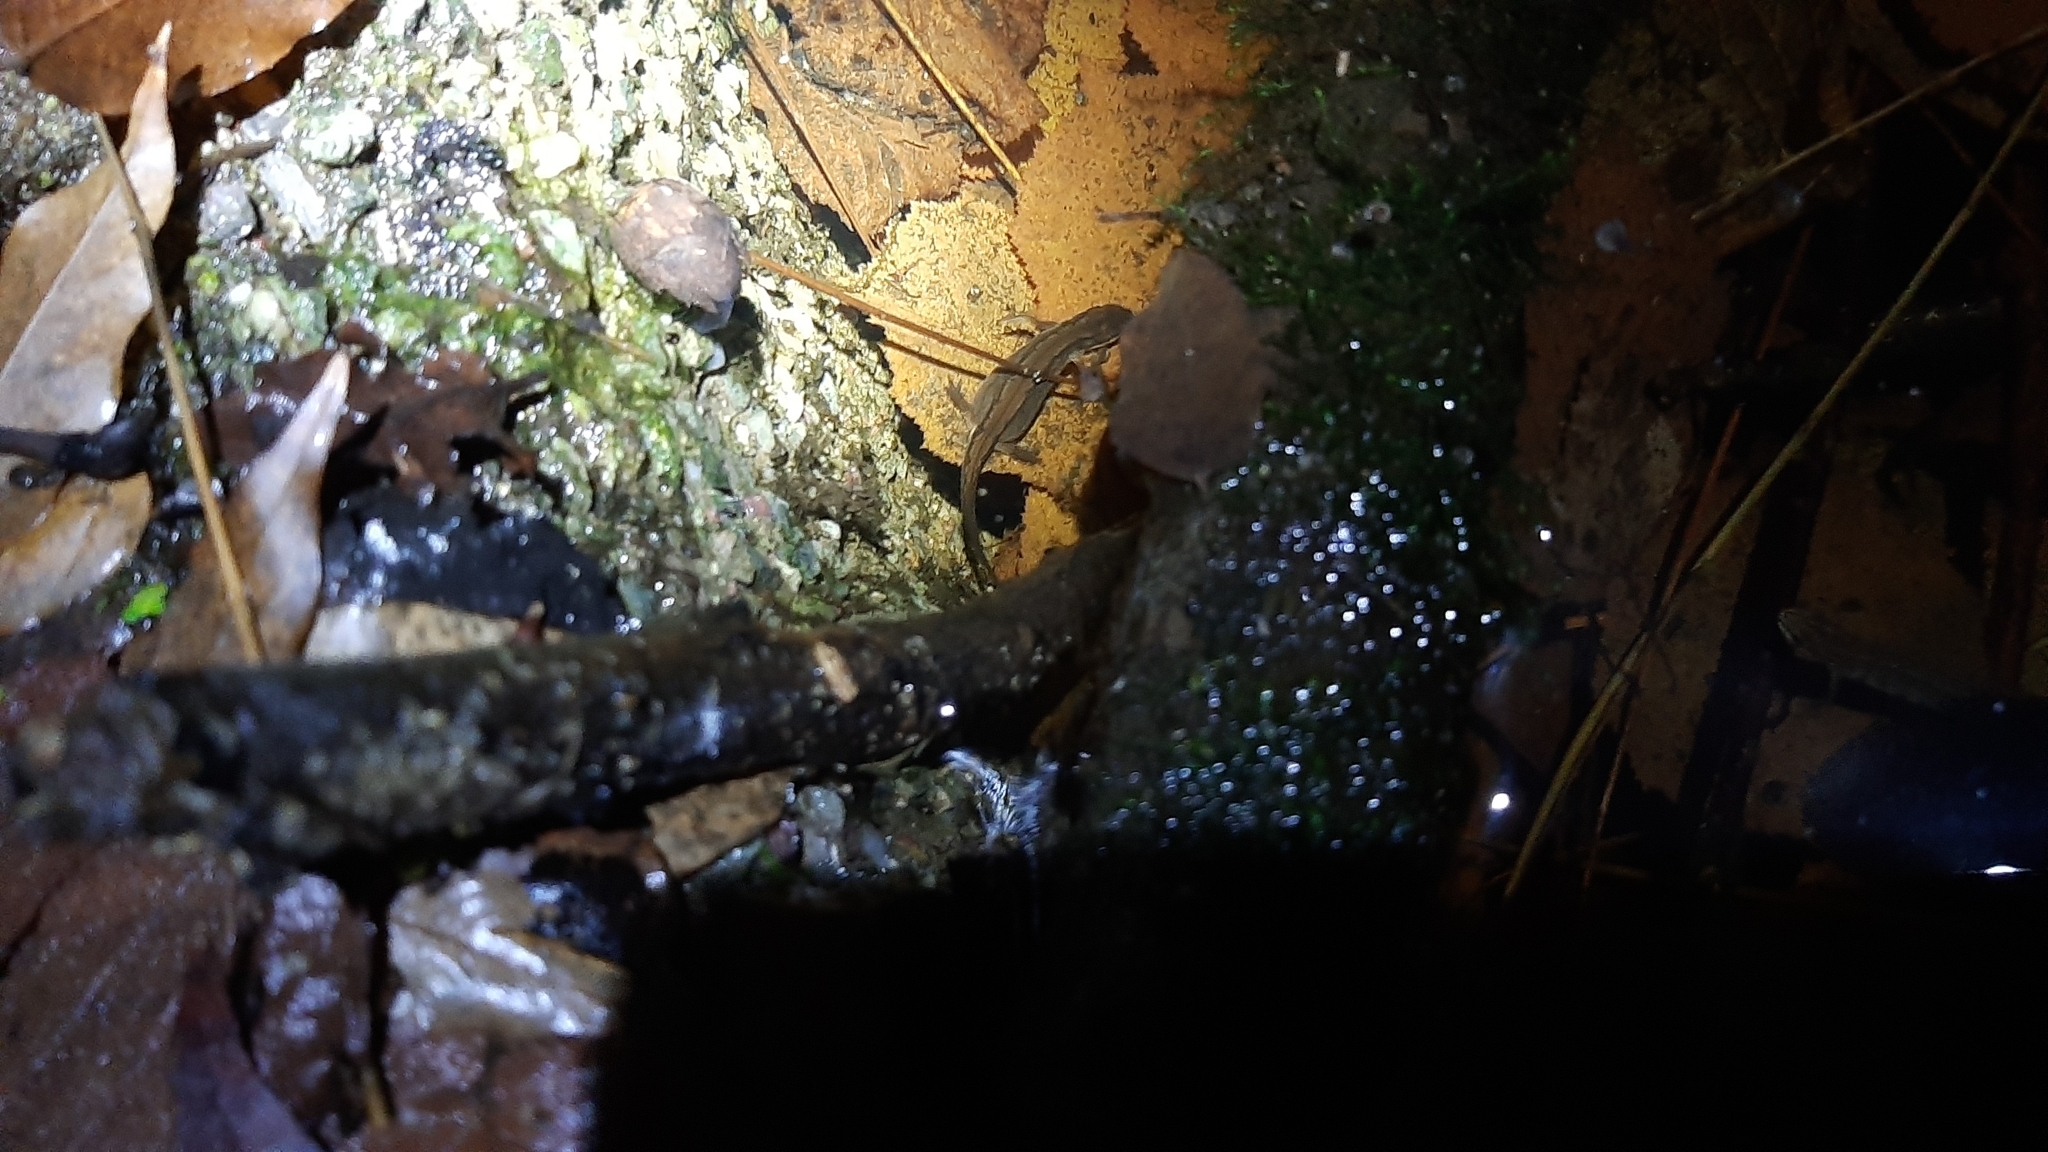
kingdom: Animalia
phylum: Chordata
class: Amphibia
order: Caudata
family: Salamandridae
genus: Lissotriton
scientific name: Lissotriton vulgaris
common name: Smooth newt
